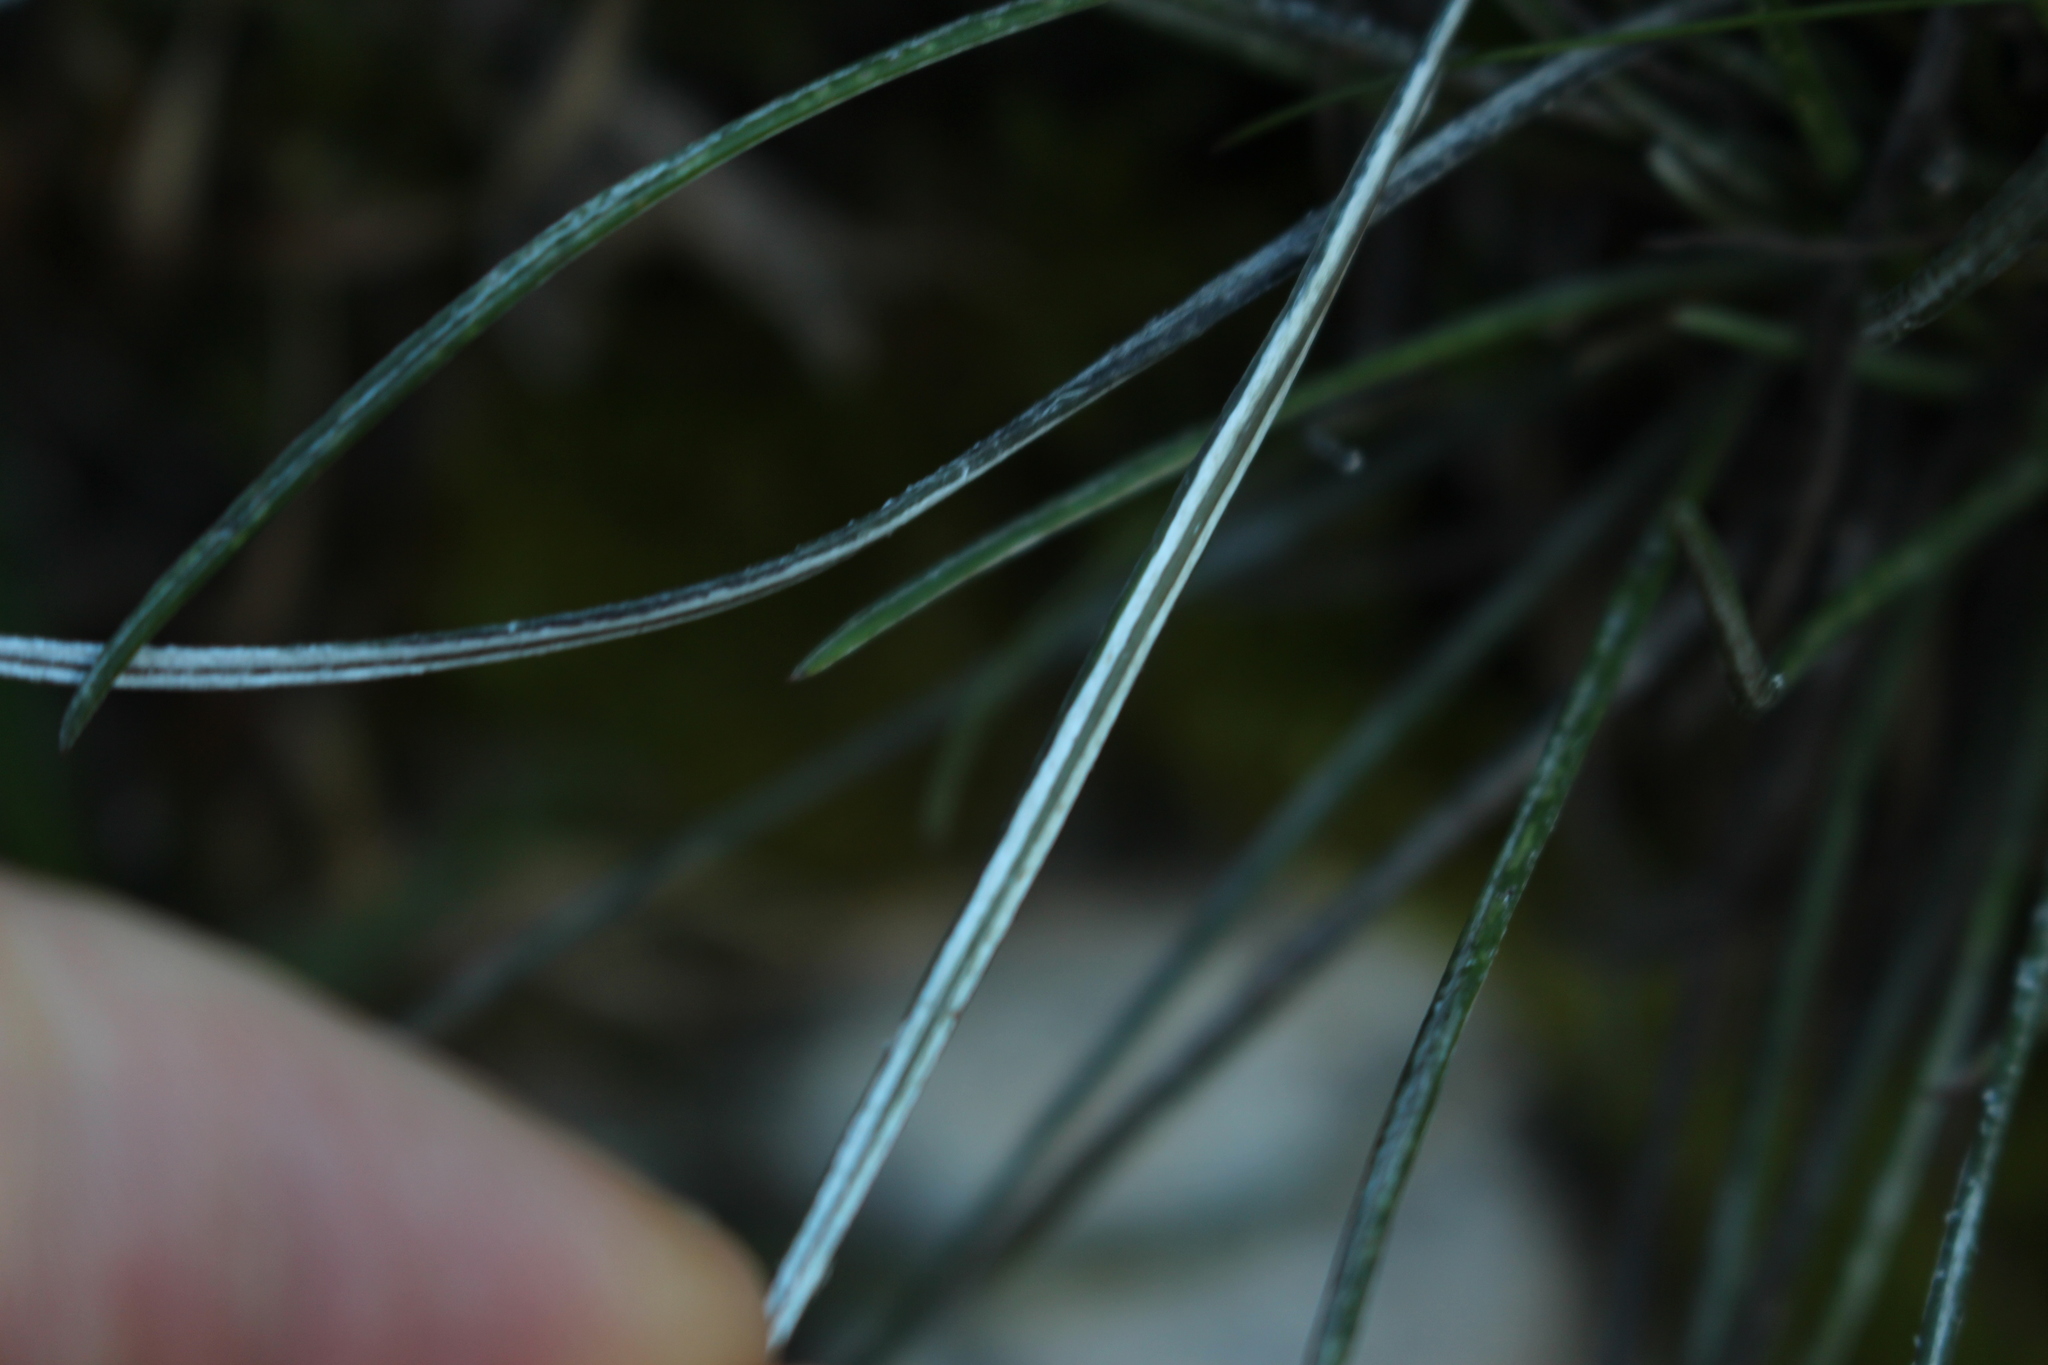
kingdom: Plantae
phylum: Tracheophyta
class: Magnoliopsida
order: Asterales
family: Asteraceae
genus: Celmisia
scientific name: Celmisia gracilenta
